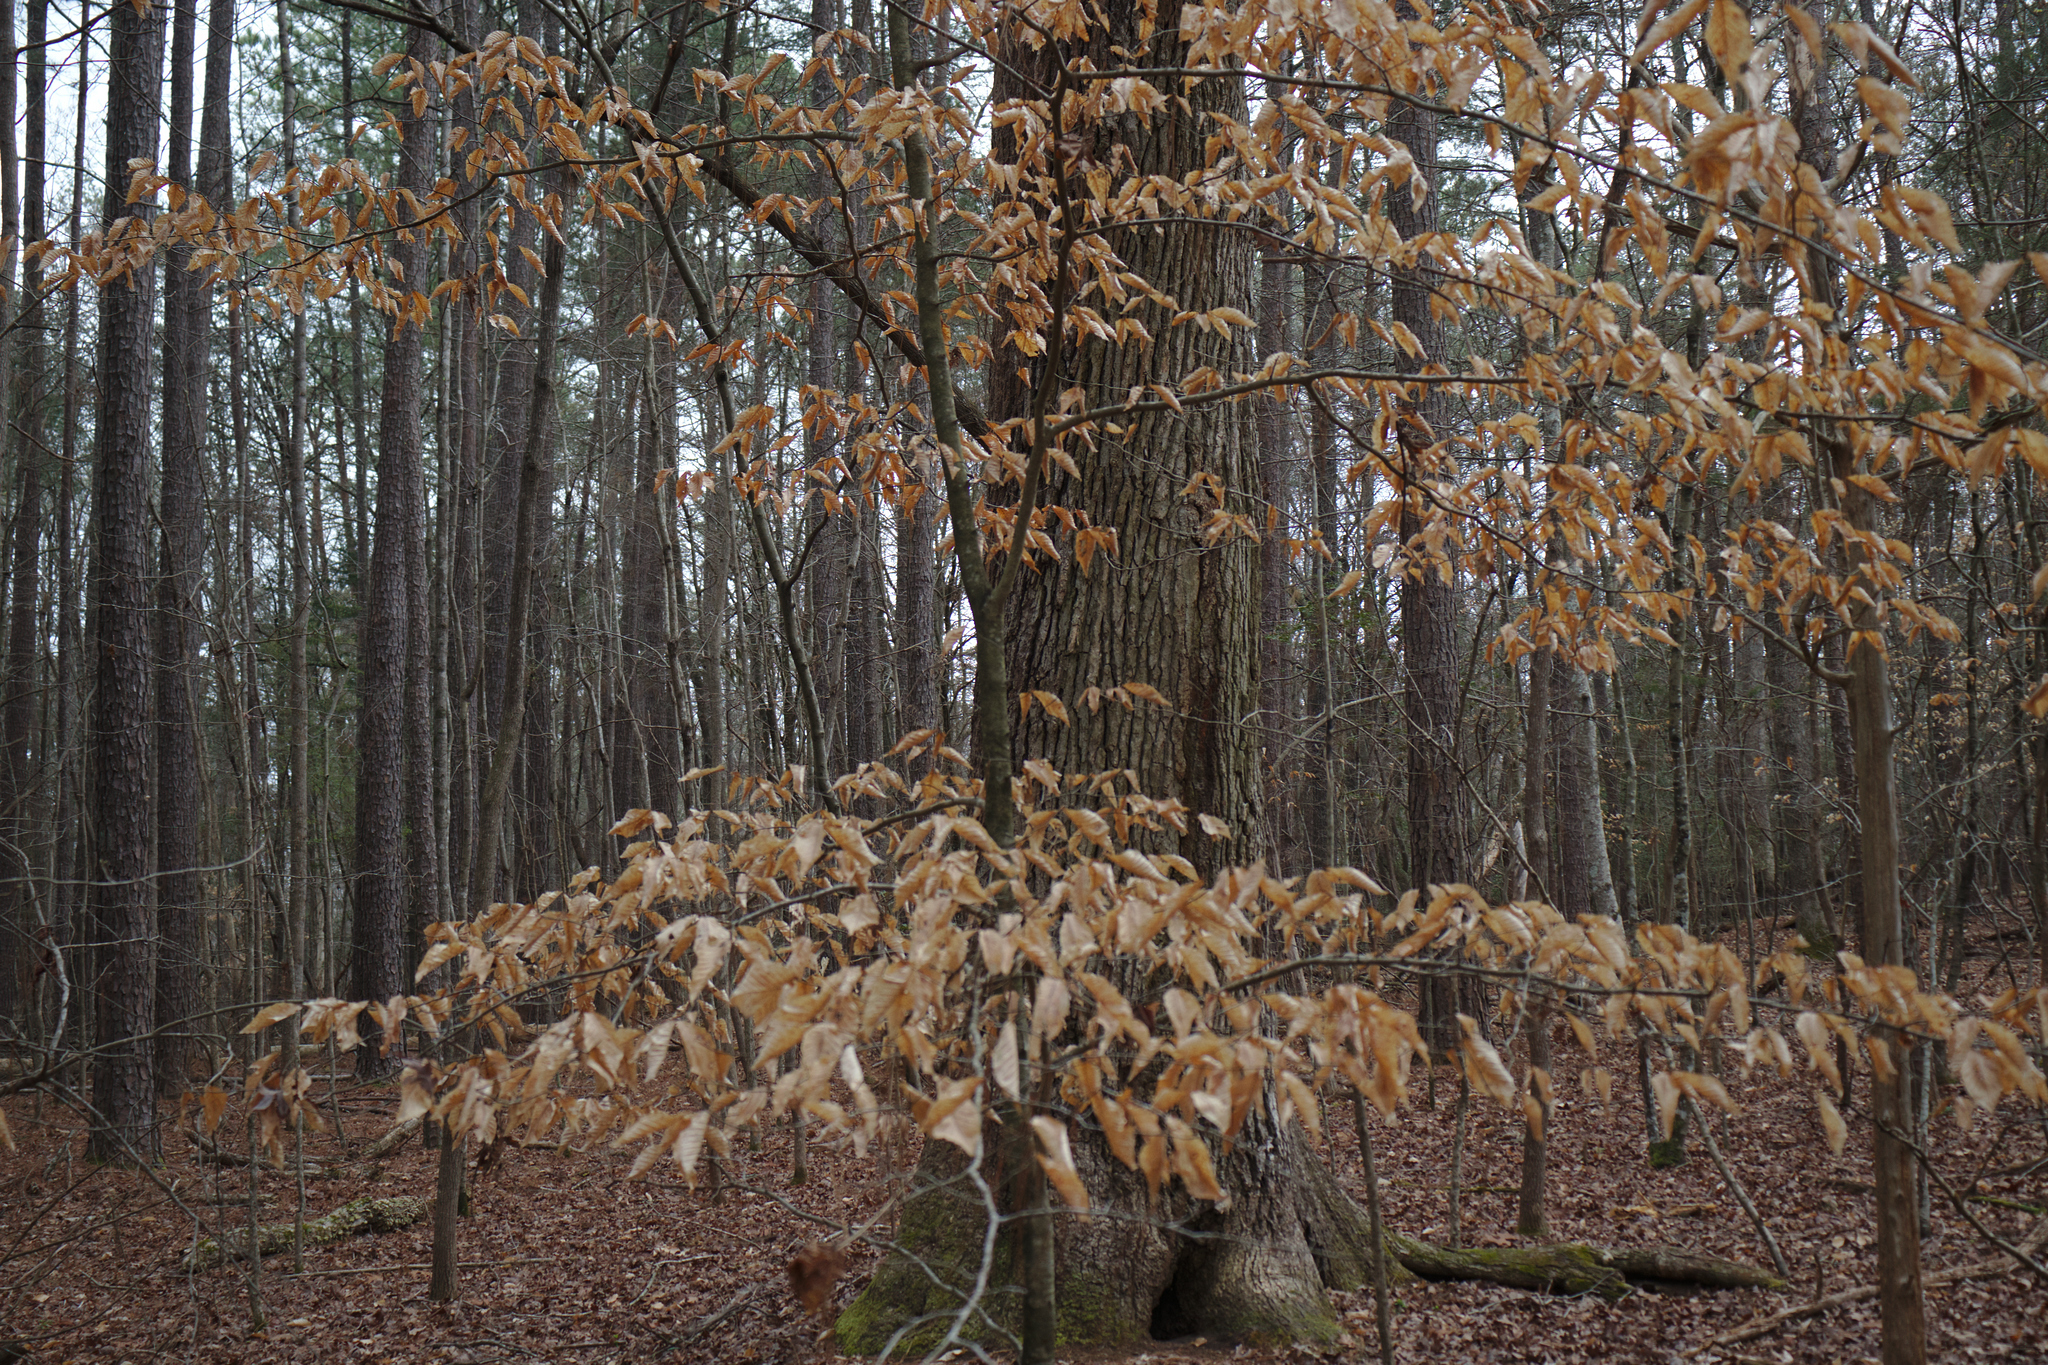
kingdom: Plantae
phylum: Tracheophyta
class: Magnoliopsida
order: Fagales
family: Fagaceae
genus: Fagus
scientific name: Fagus grandifolia
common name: American beech
